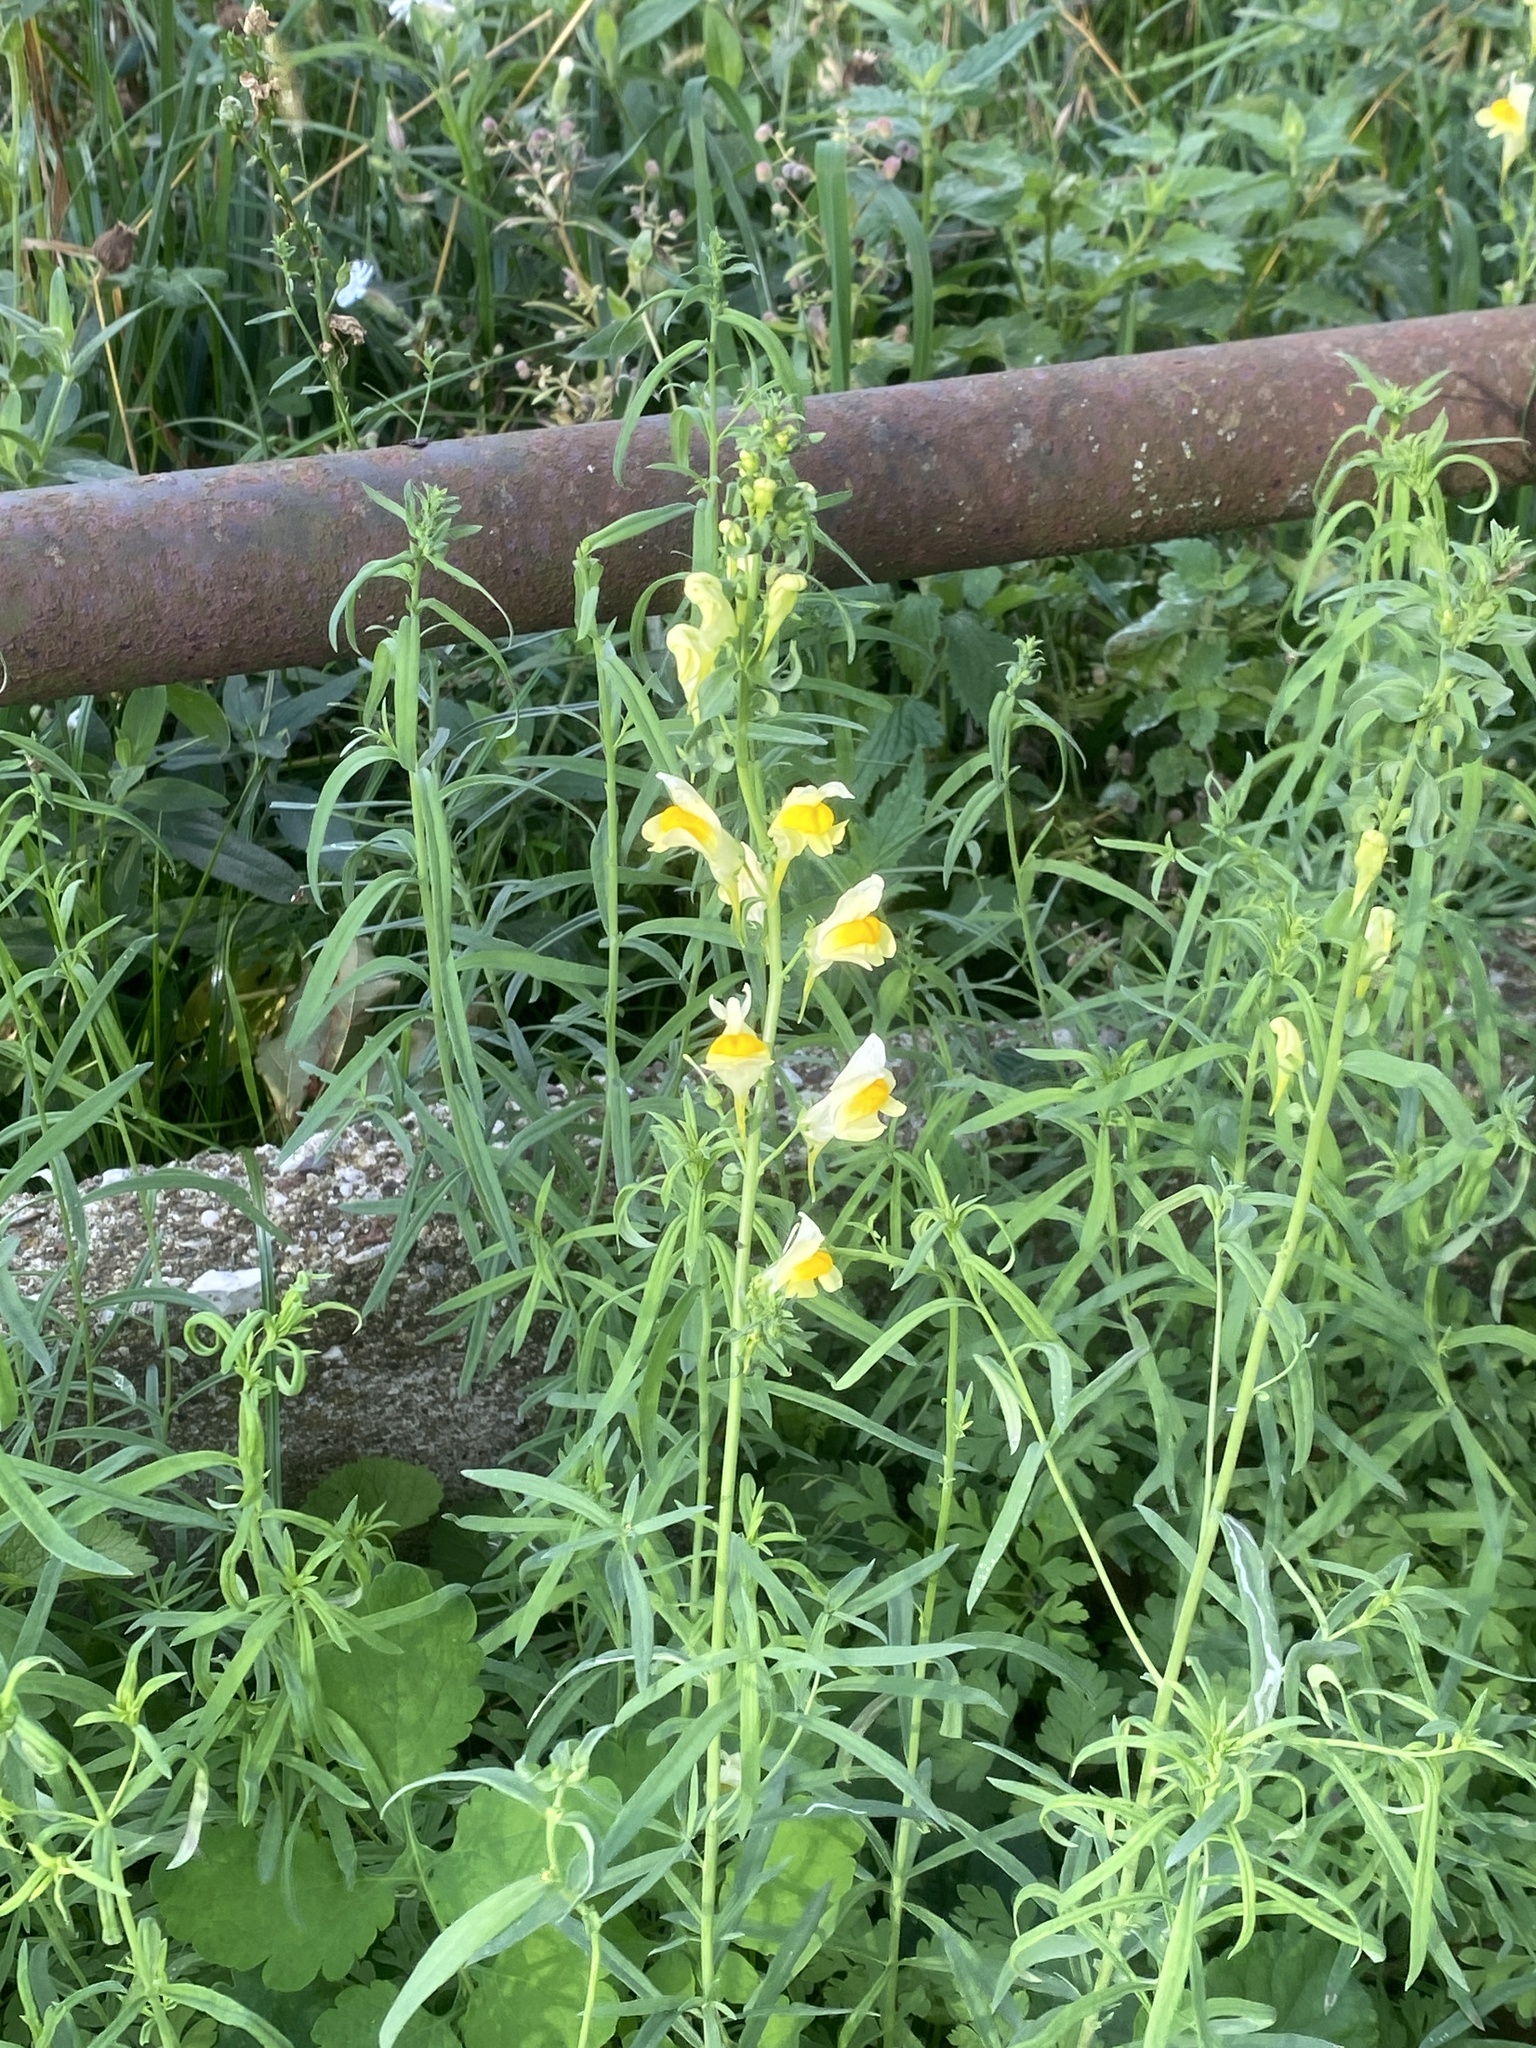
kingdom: Plantae
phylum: Tracheophyta
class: Magnoliopsida
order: Lamiales
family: Plantaginaceae
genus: Linaria
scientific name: Linaria vulgaris
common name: Butter and eggs
